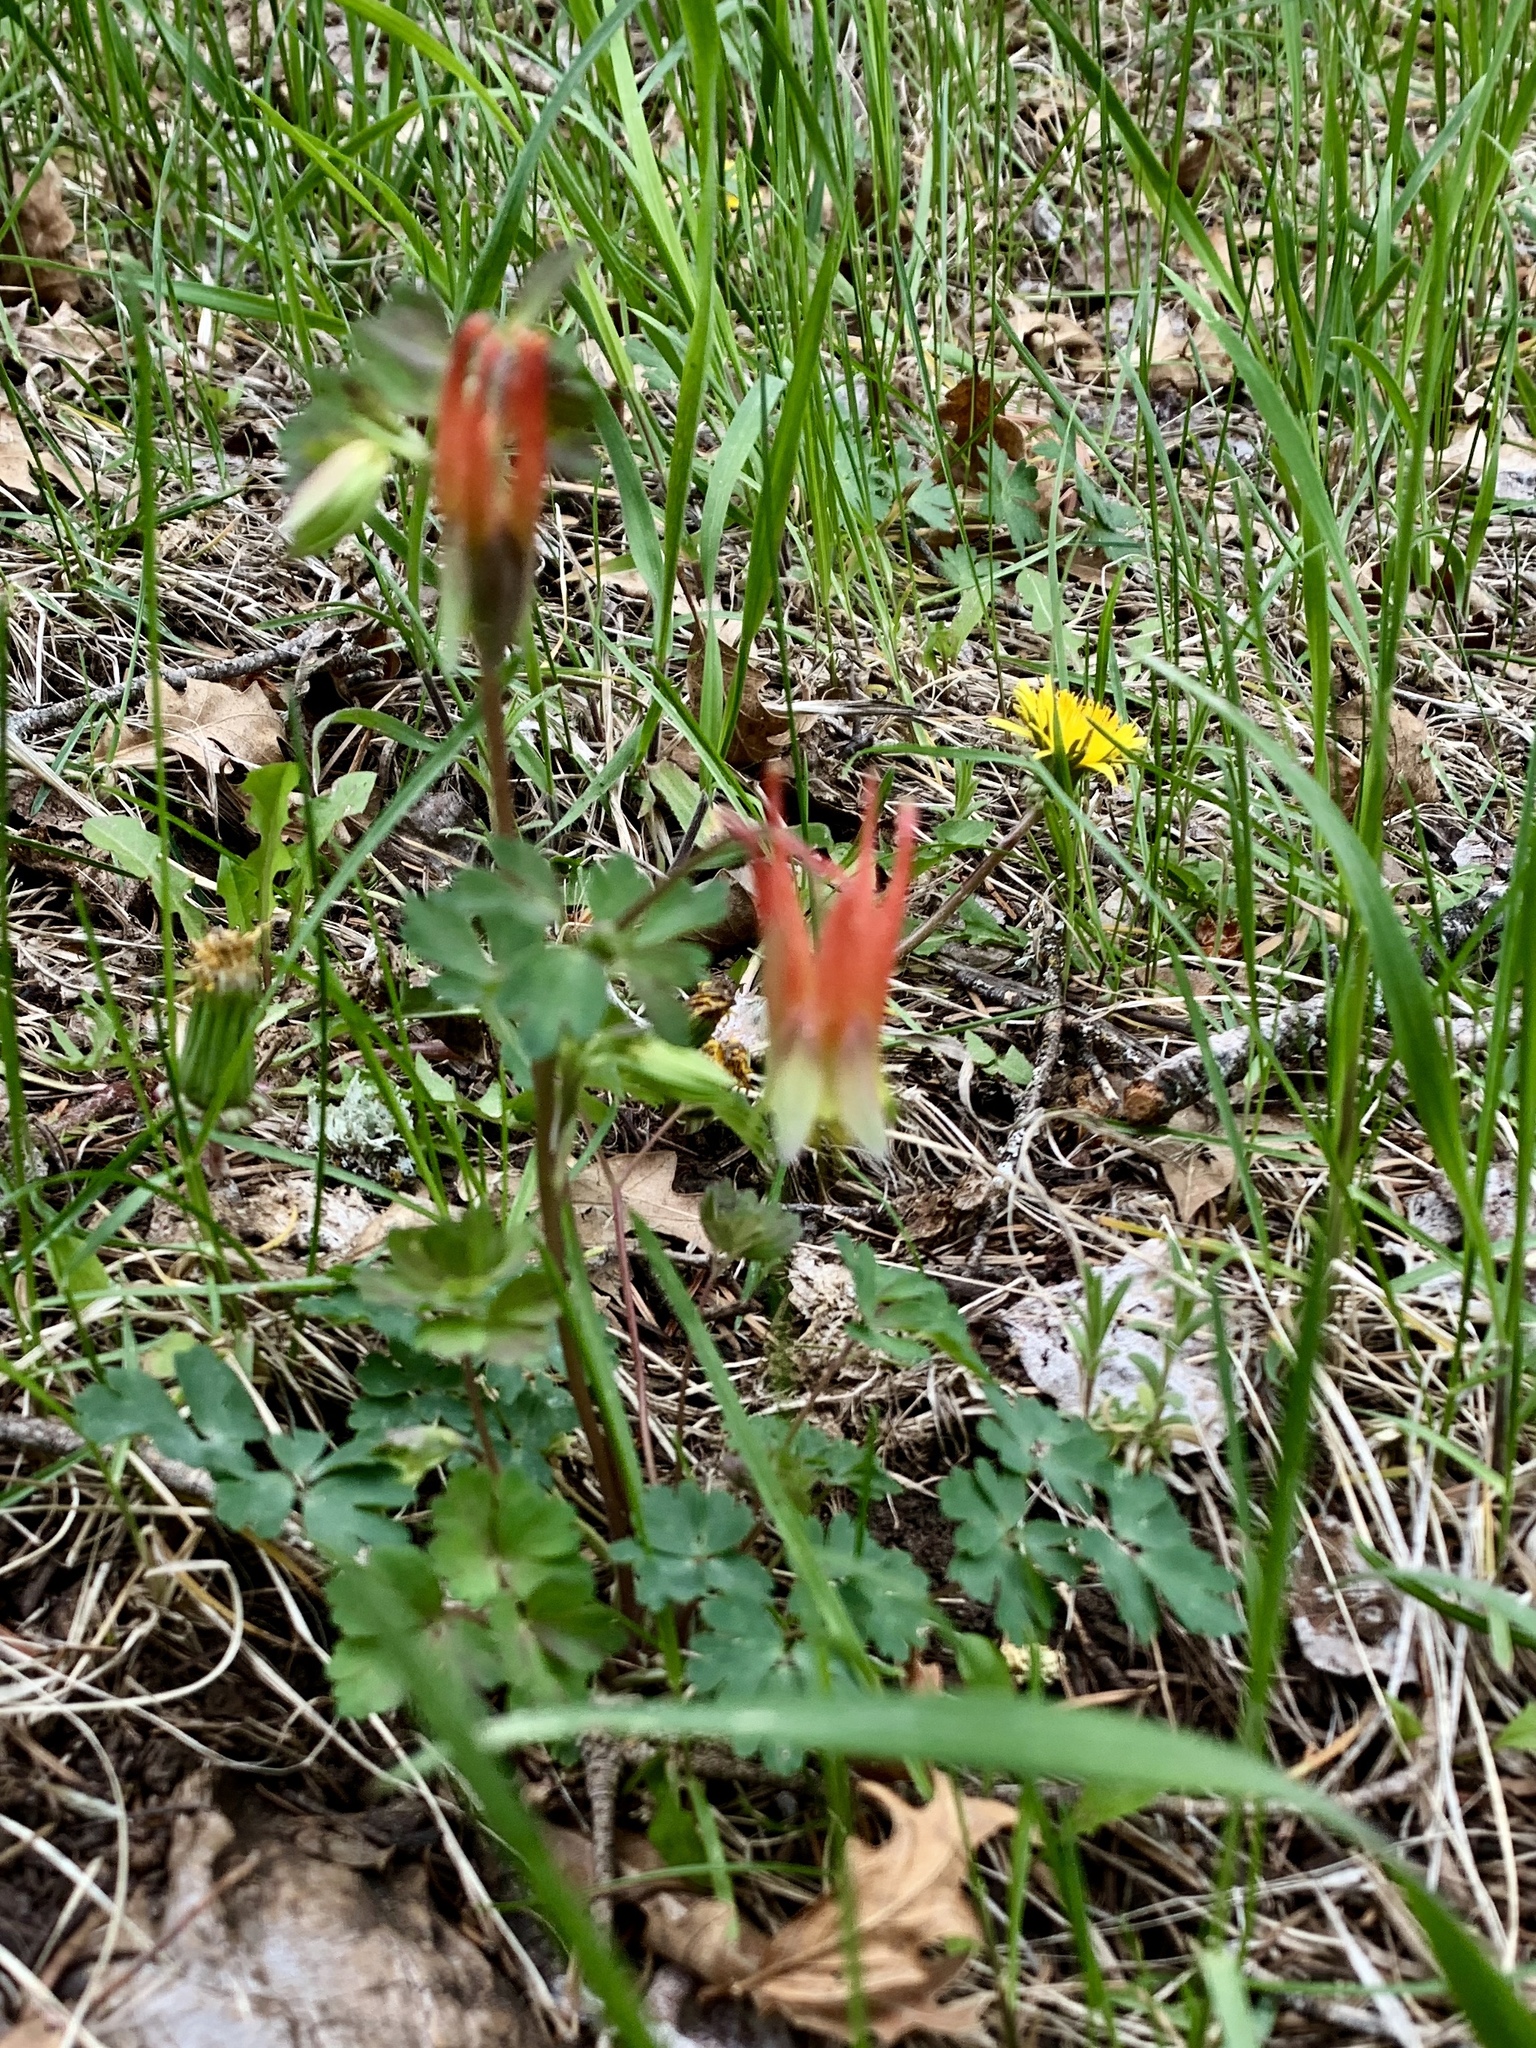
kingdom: Plantae
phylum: Tracheophyta
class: Magnoliopsida
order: Ranunculales
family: Ranunculaceae
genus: Aquilegia
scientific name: Aquilegia elegantula
